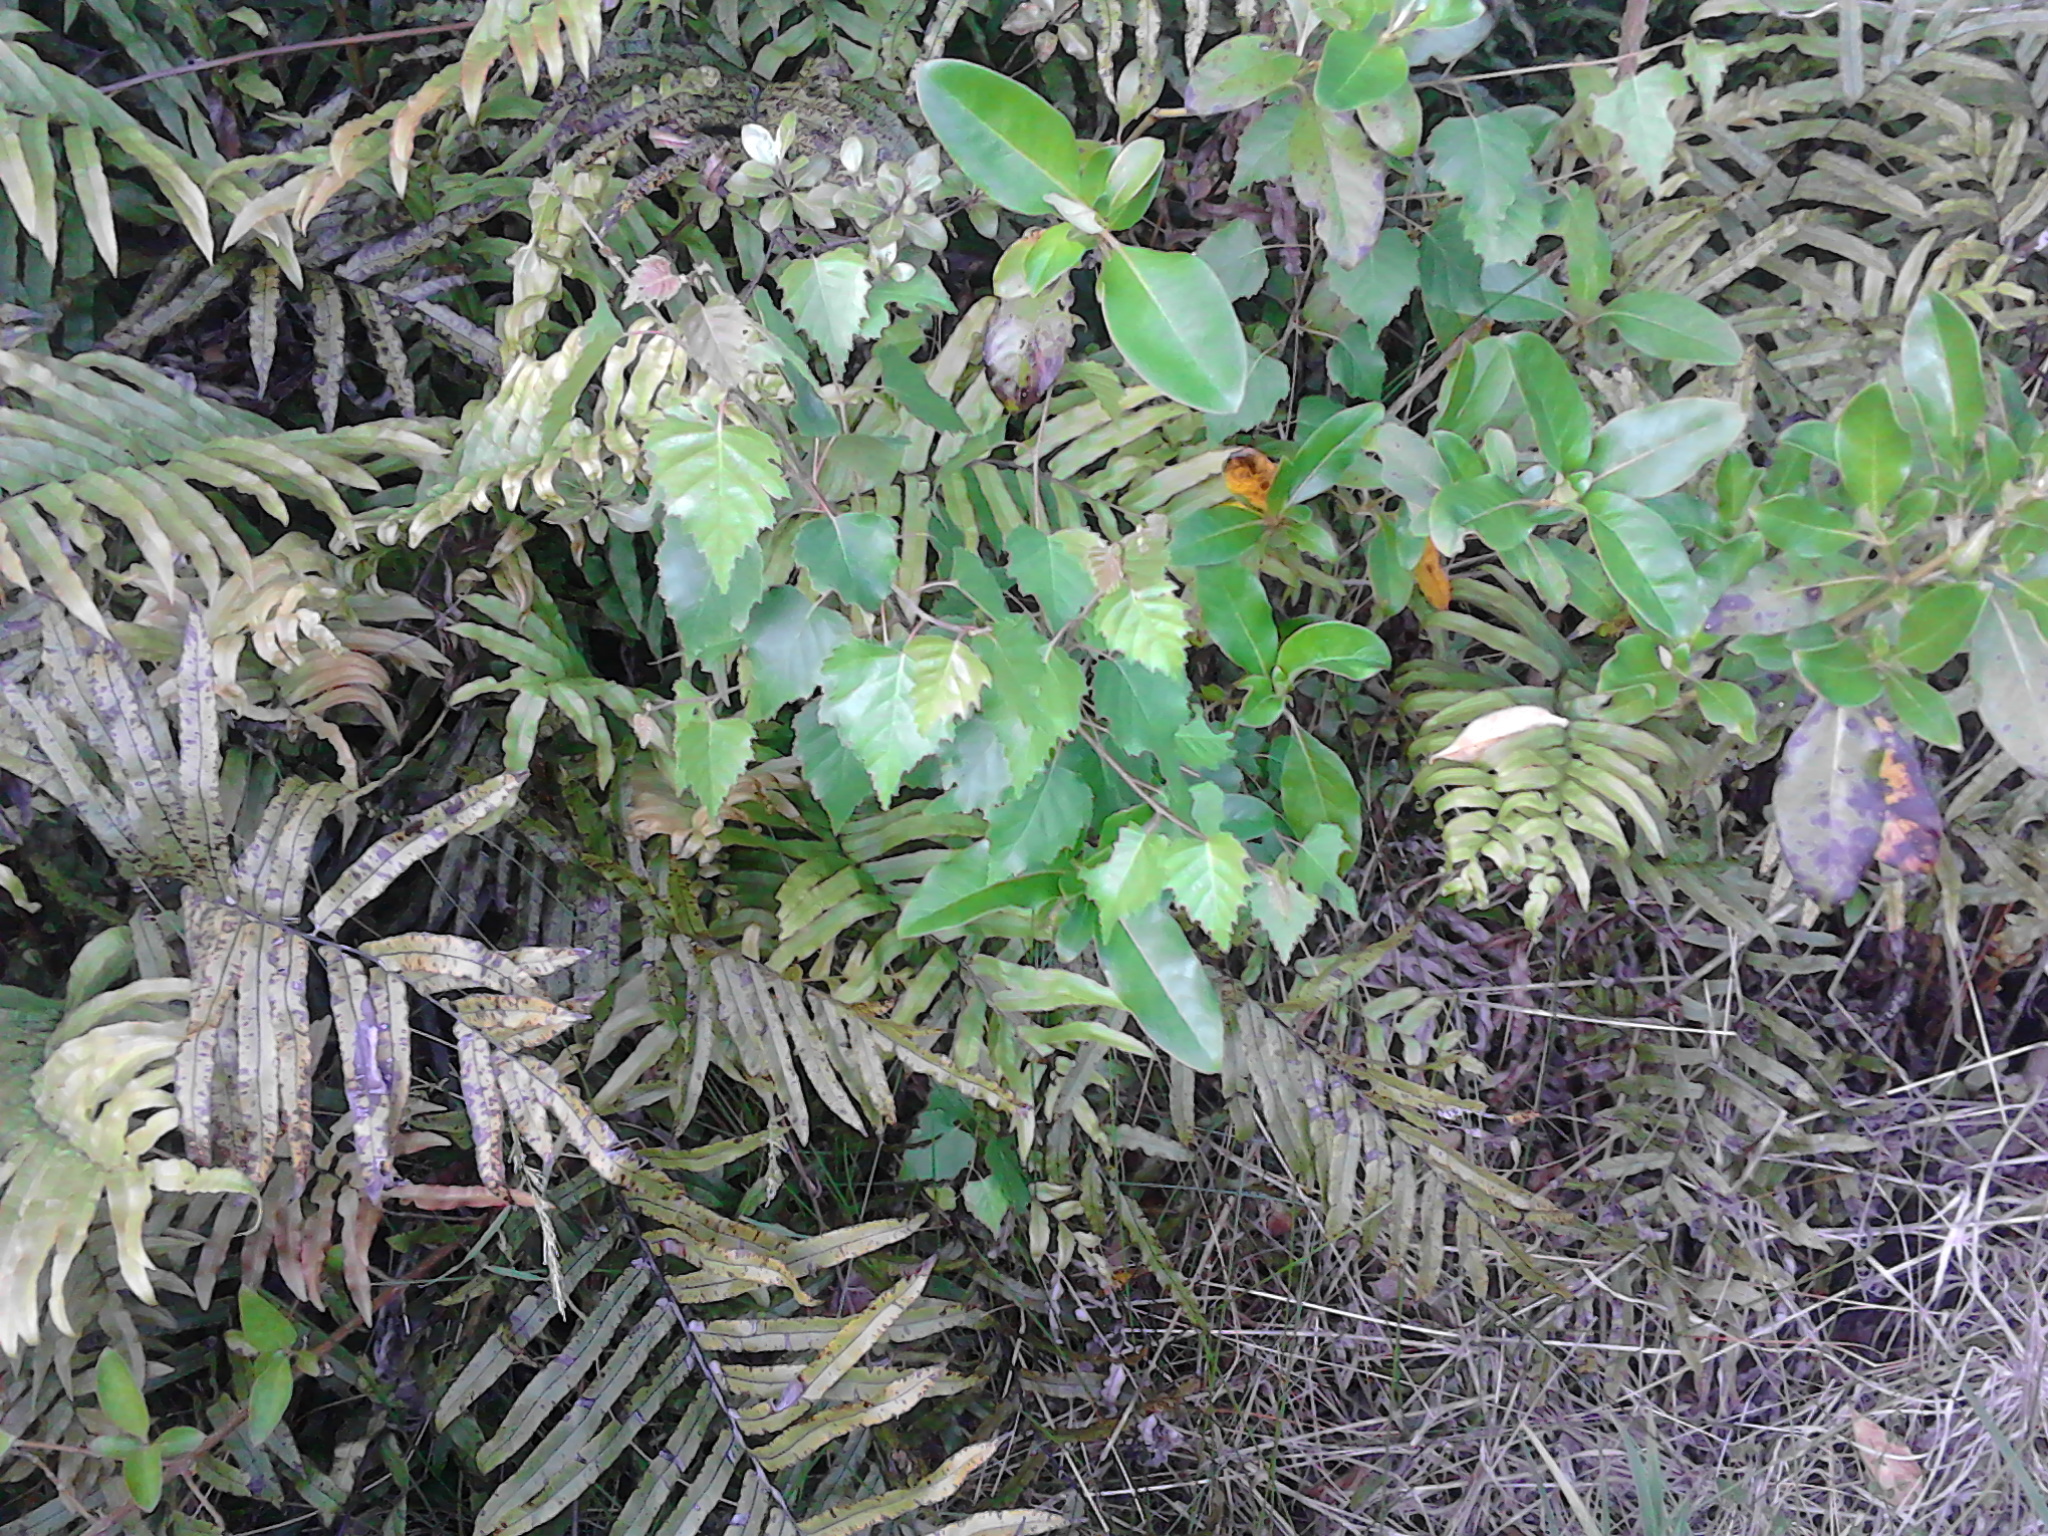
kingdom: Plantae
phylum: Tracheophyta
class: Magnoliopsida
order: Fagales
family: Betulaceae
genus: Betula
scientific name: Betula pendula
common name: Silver birch
